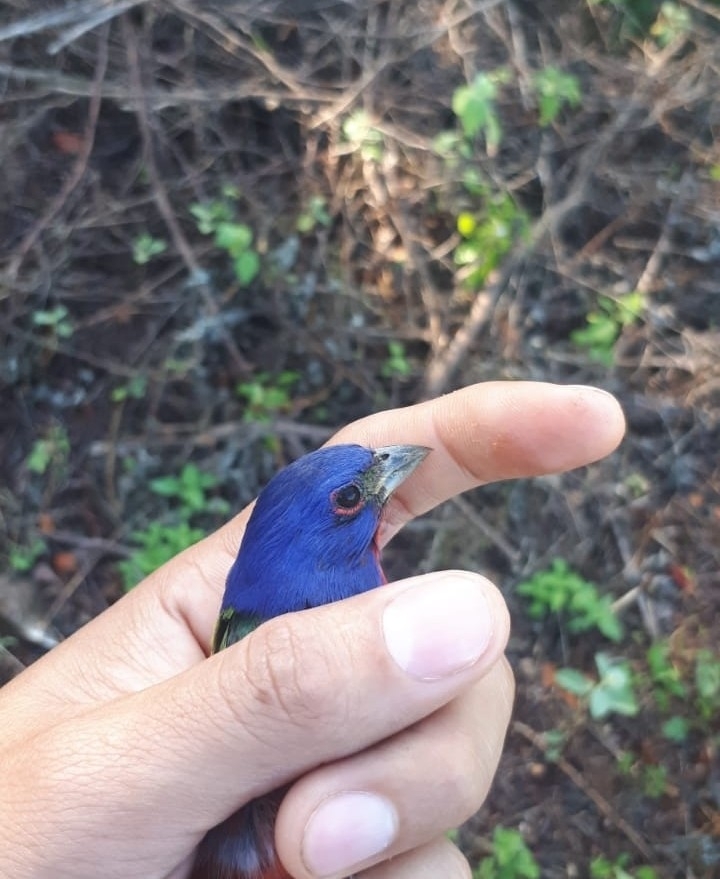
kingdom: Animalia
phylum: Chordata
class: Aves
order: Passeriformes
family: Cardinalidae
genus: Passerina
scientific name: Passerina ciris
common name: Painted bunting
